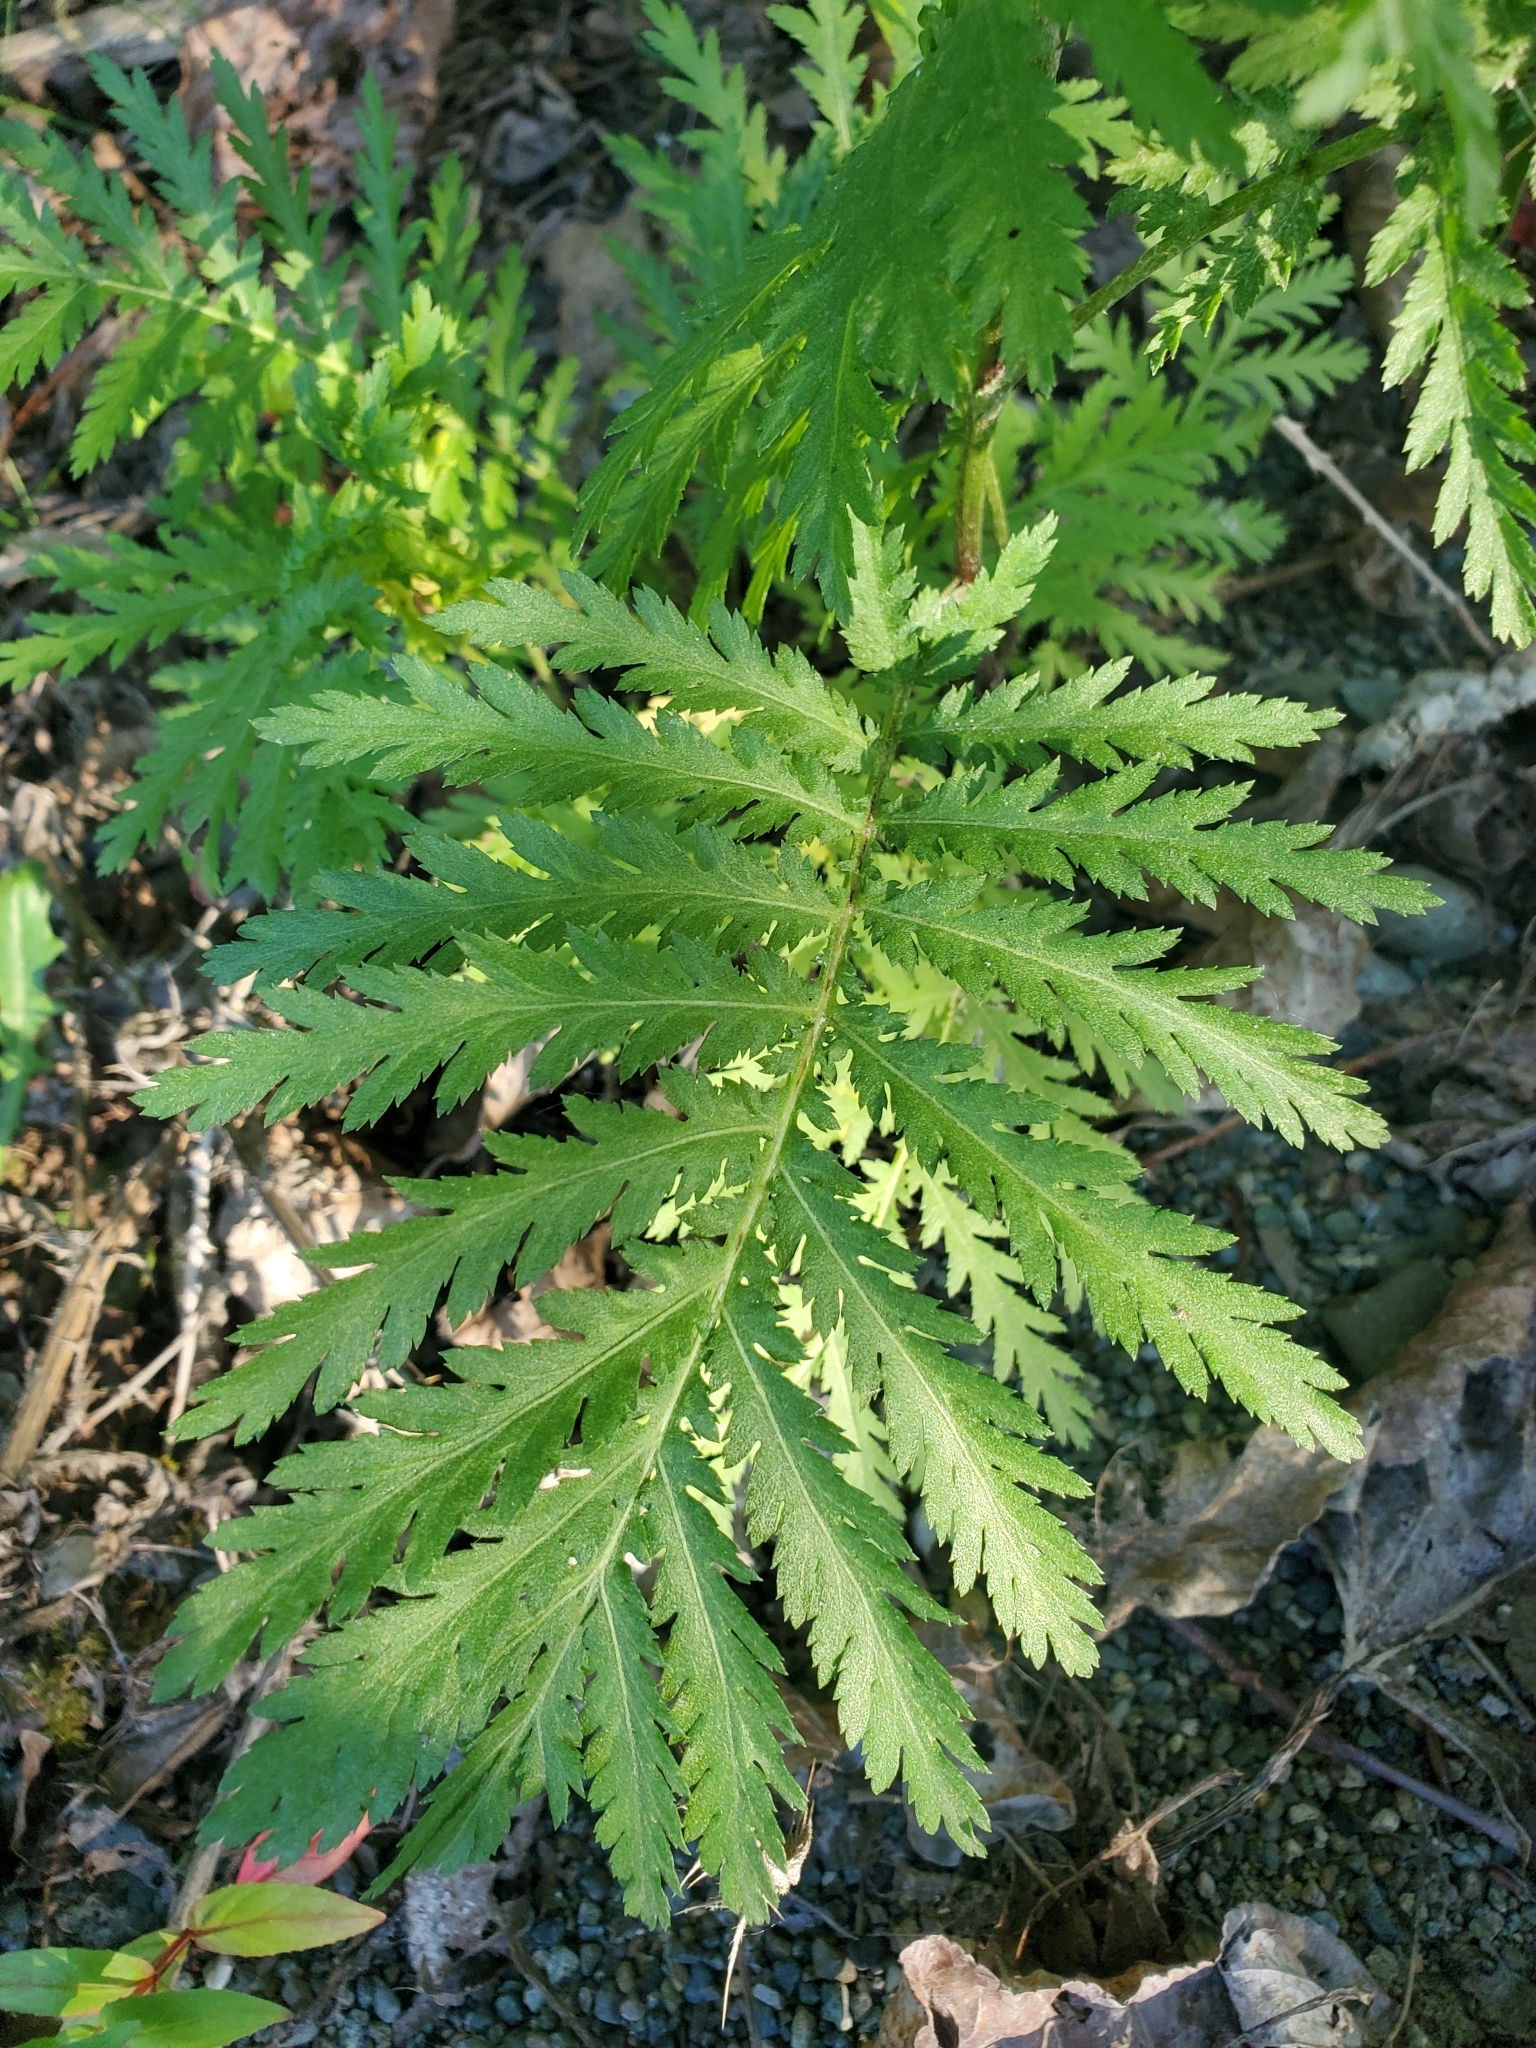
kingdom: Plantae
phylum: Tracheophyta
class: Magnoliopsida
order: Asterales
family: Asteraceae
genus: Tanacetum
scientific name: Tanacetum vulgare
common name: Common tansy
